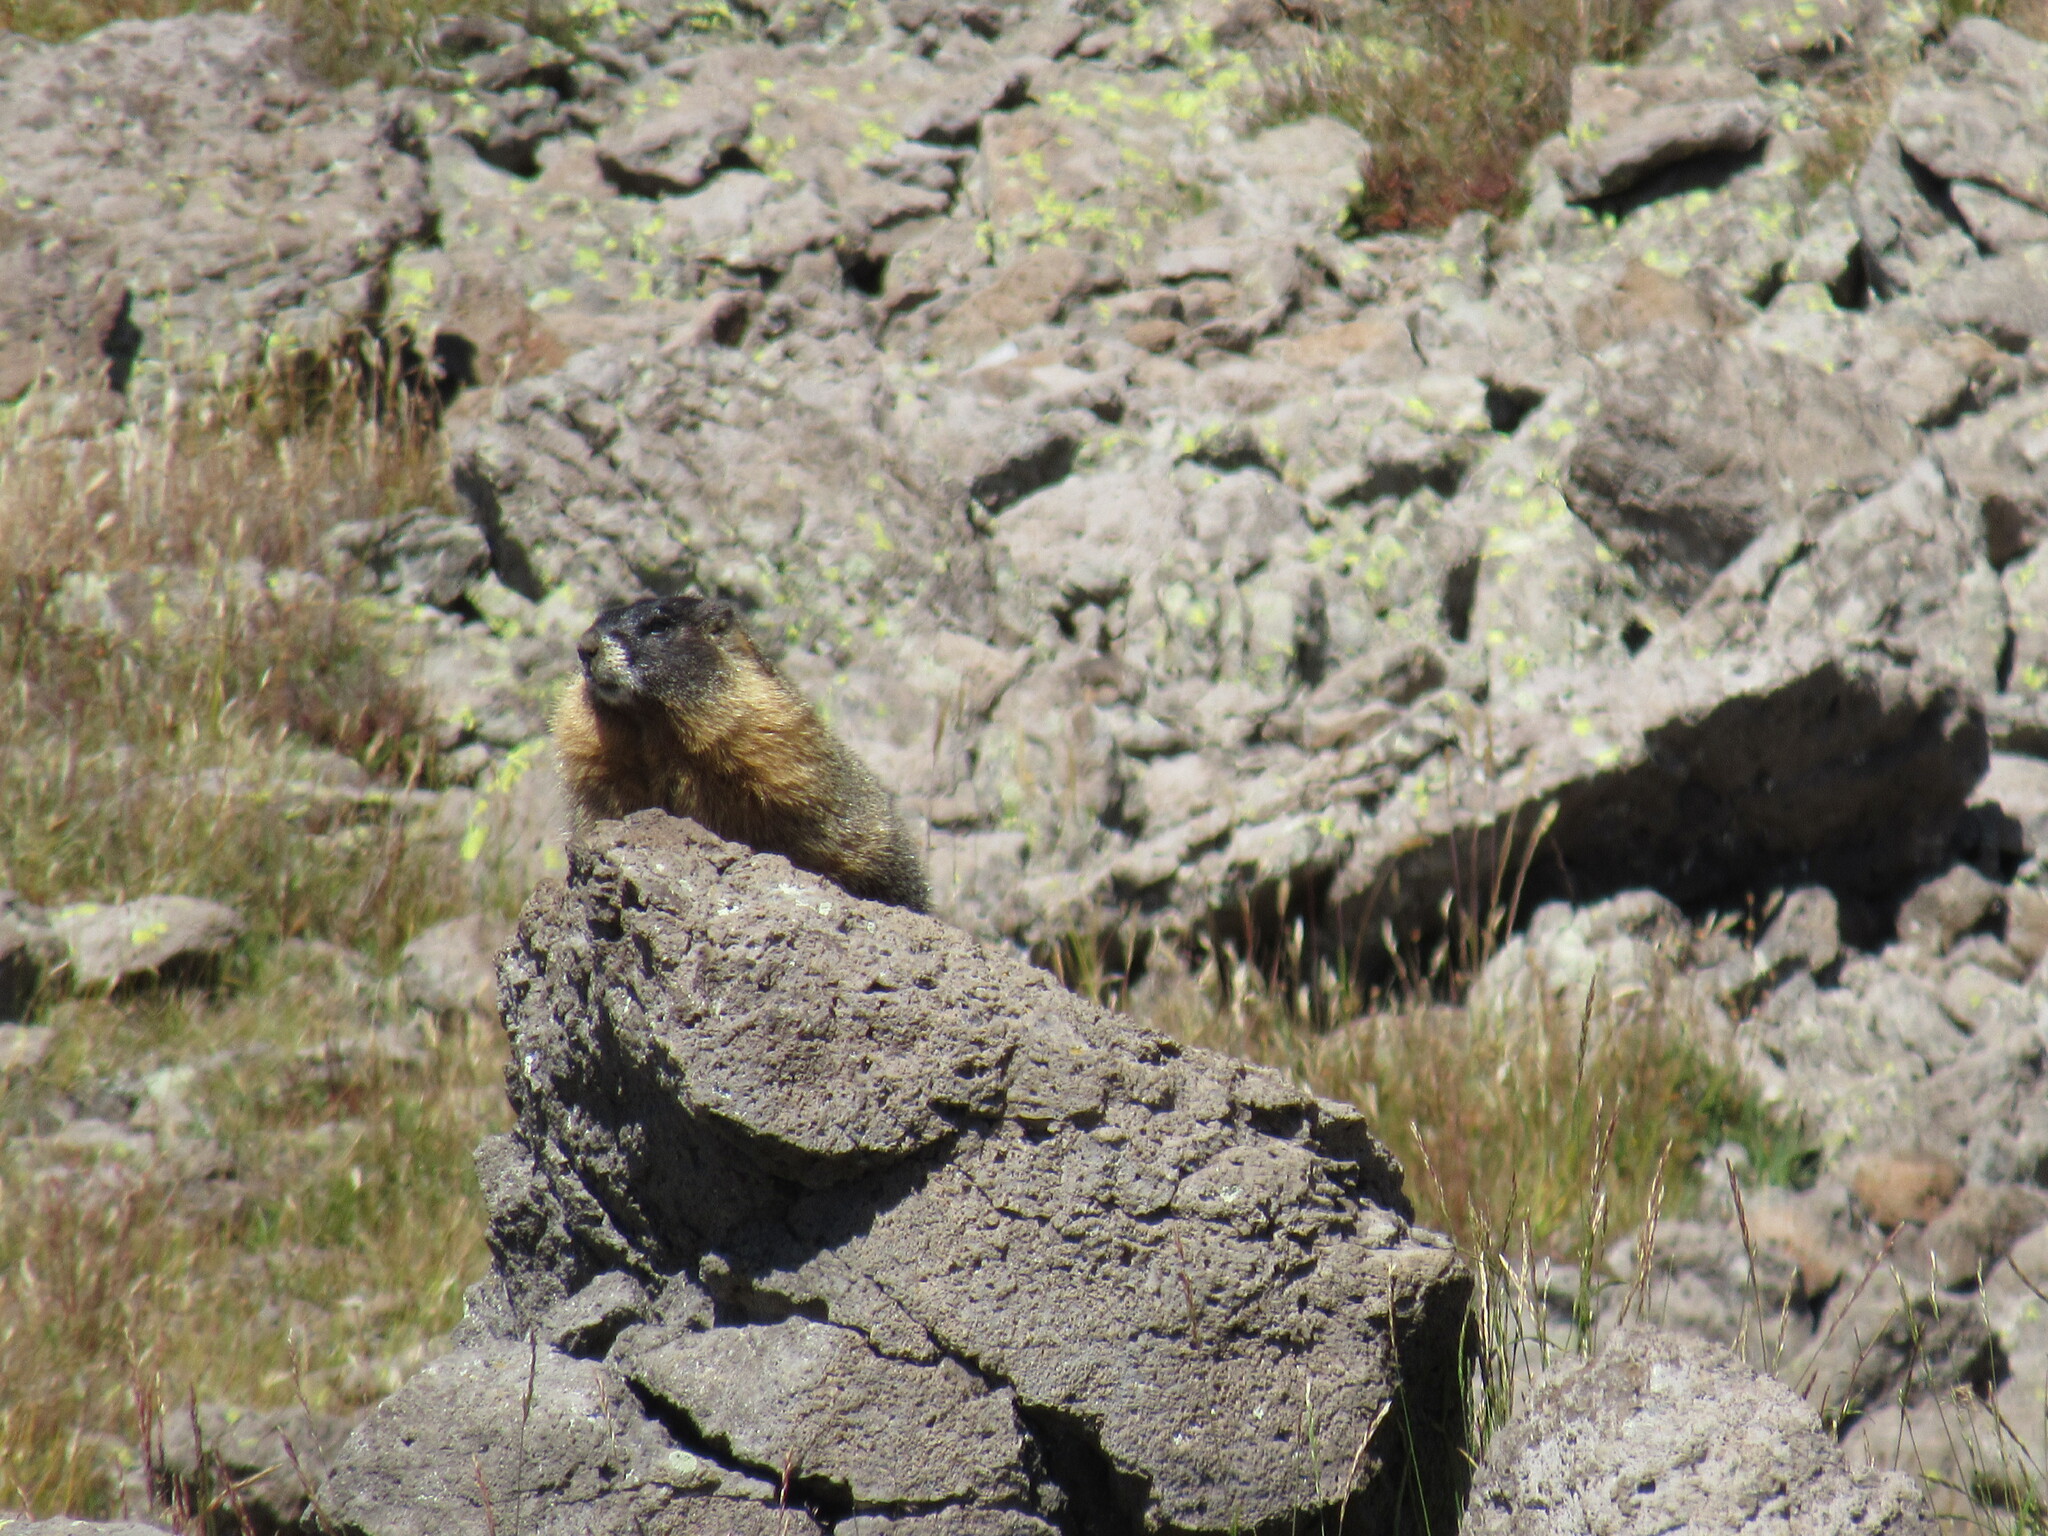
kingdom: Animalia
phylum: Chordata
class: Mammalia
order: Rodentia
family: Sciuridae
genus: Marmota
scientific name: Marmota flaviventris
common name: Yellow-bellied marmot
